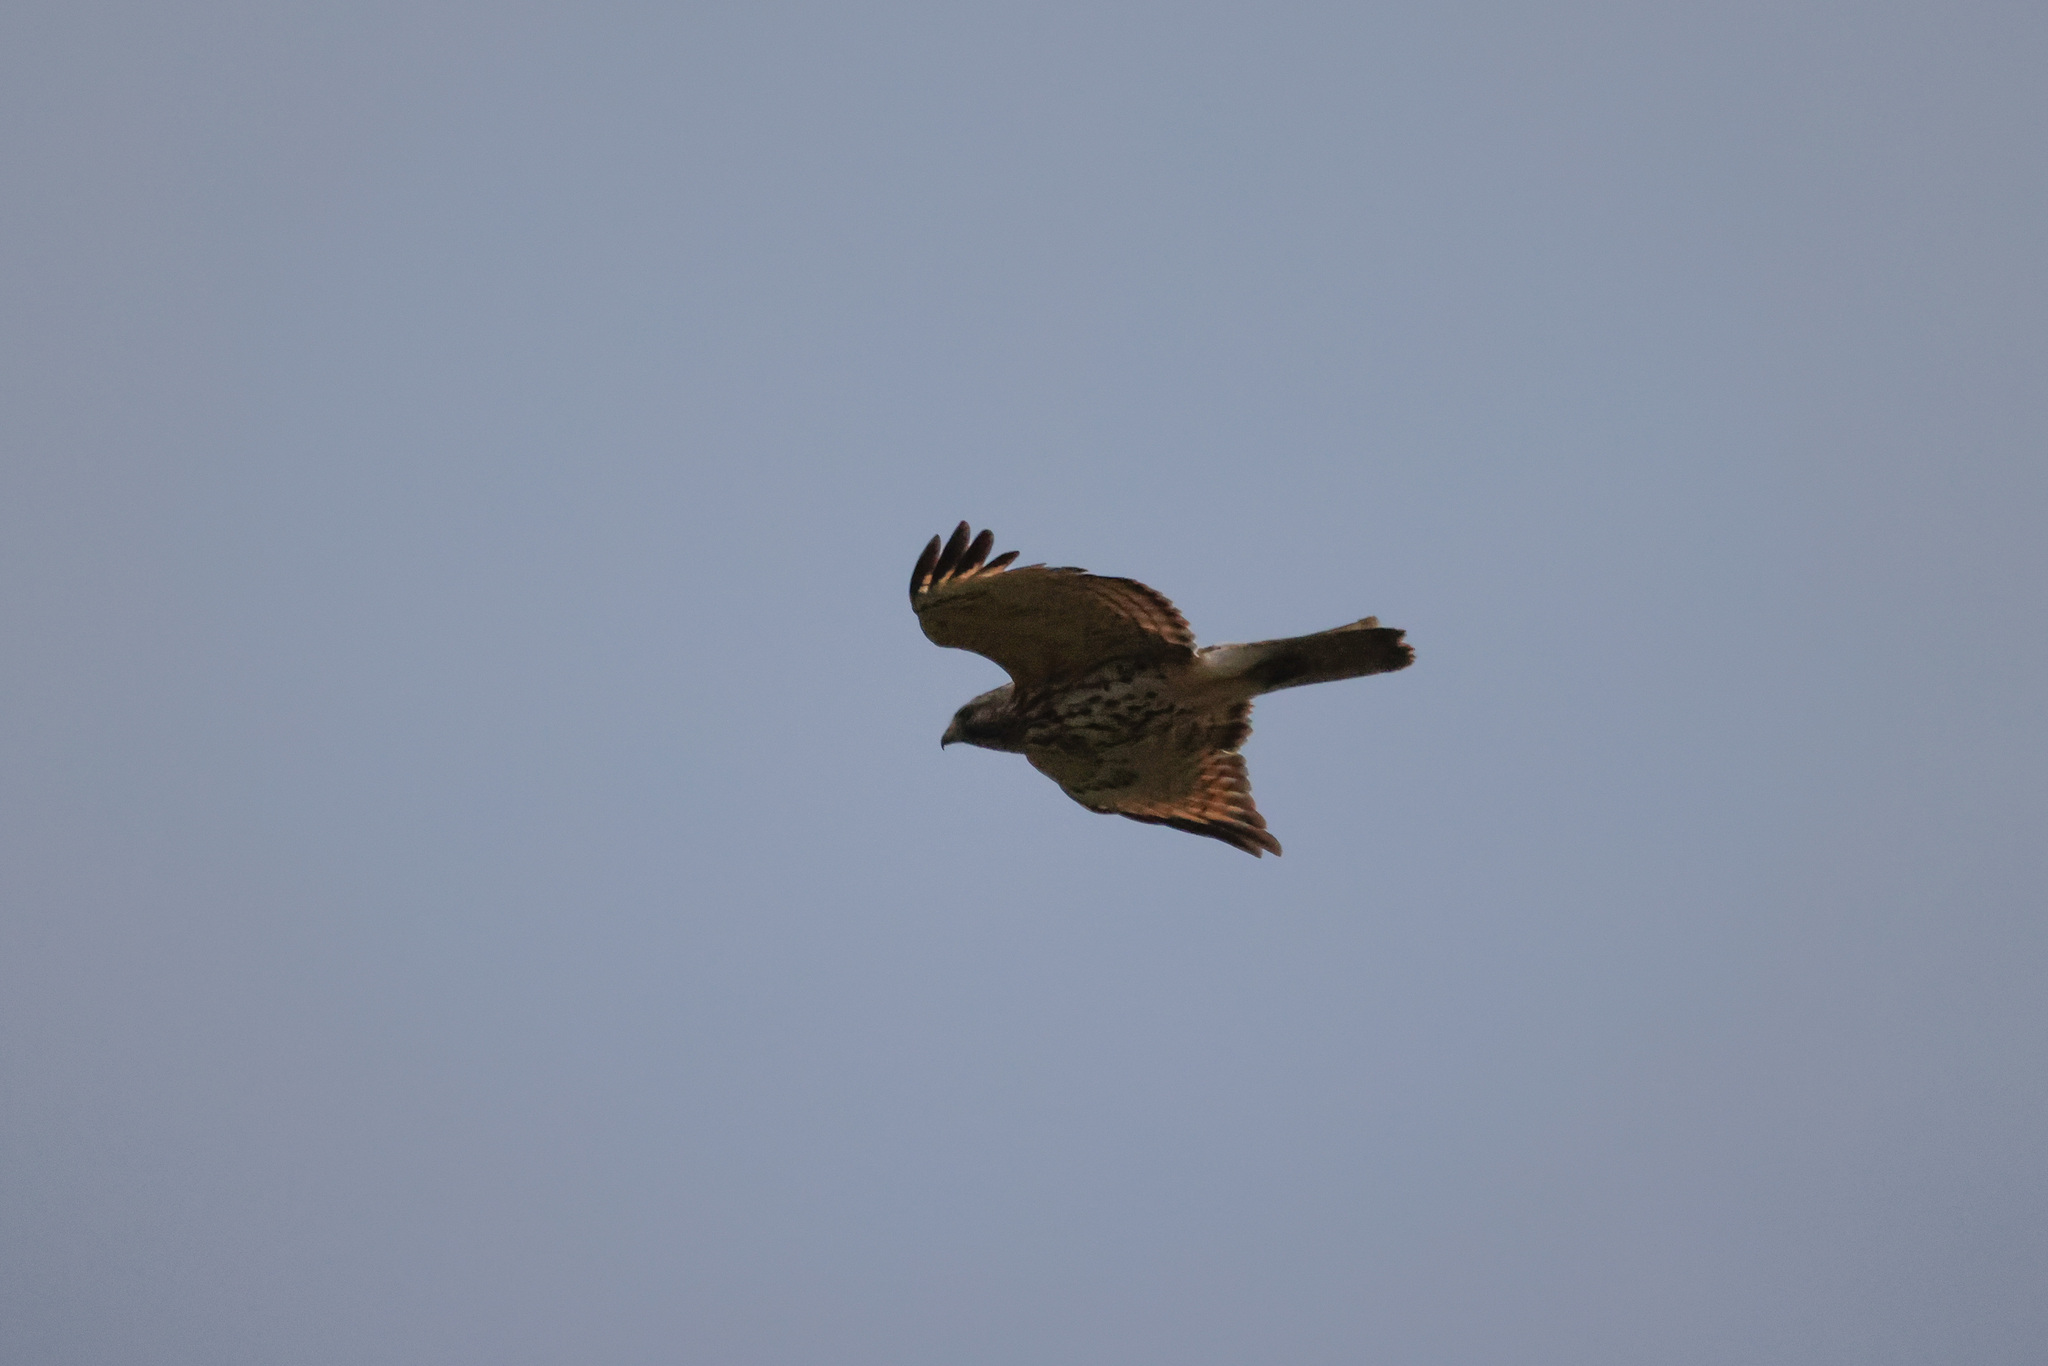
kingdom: Animalia
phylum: Chordata
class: Aves
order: Accipitriformes
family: Accipitridae
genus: Buteo
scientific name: Buteo lineatus
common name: Red-shouldered hawk
